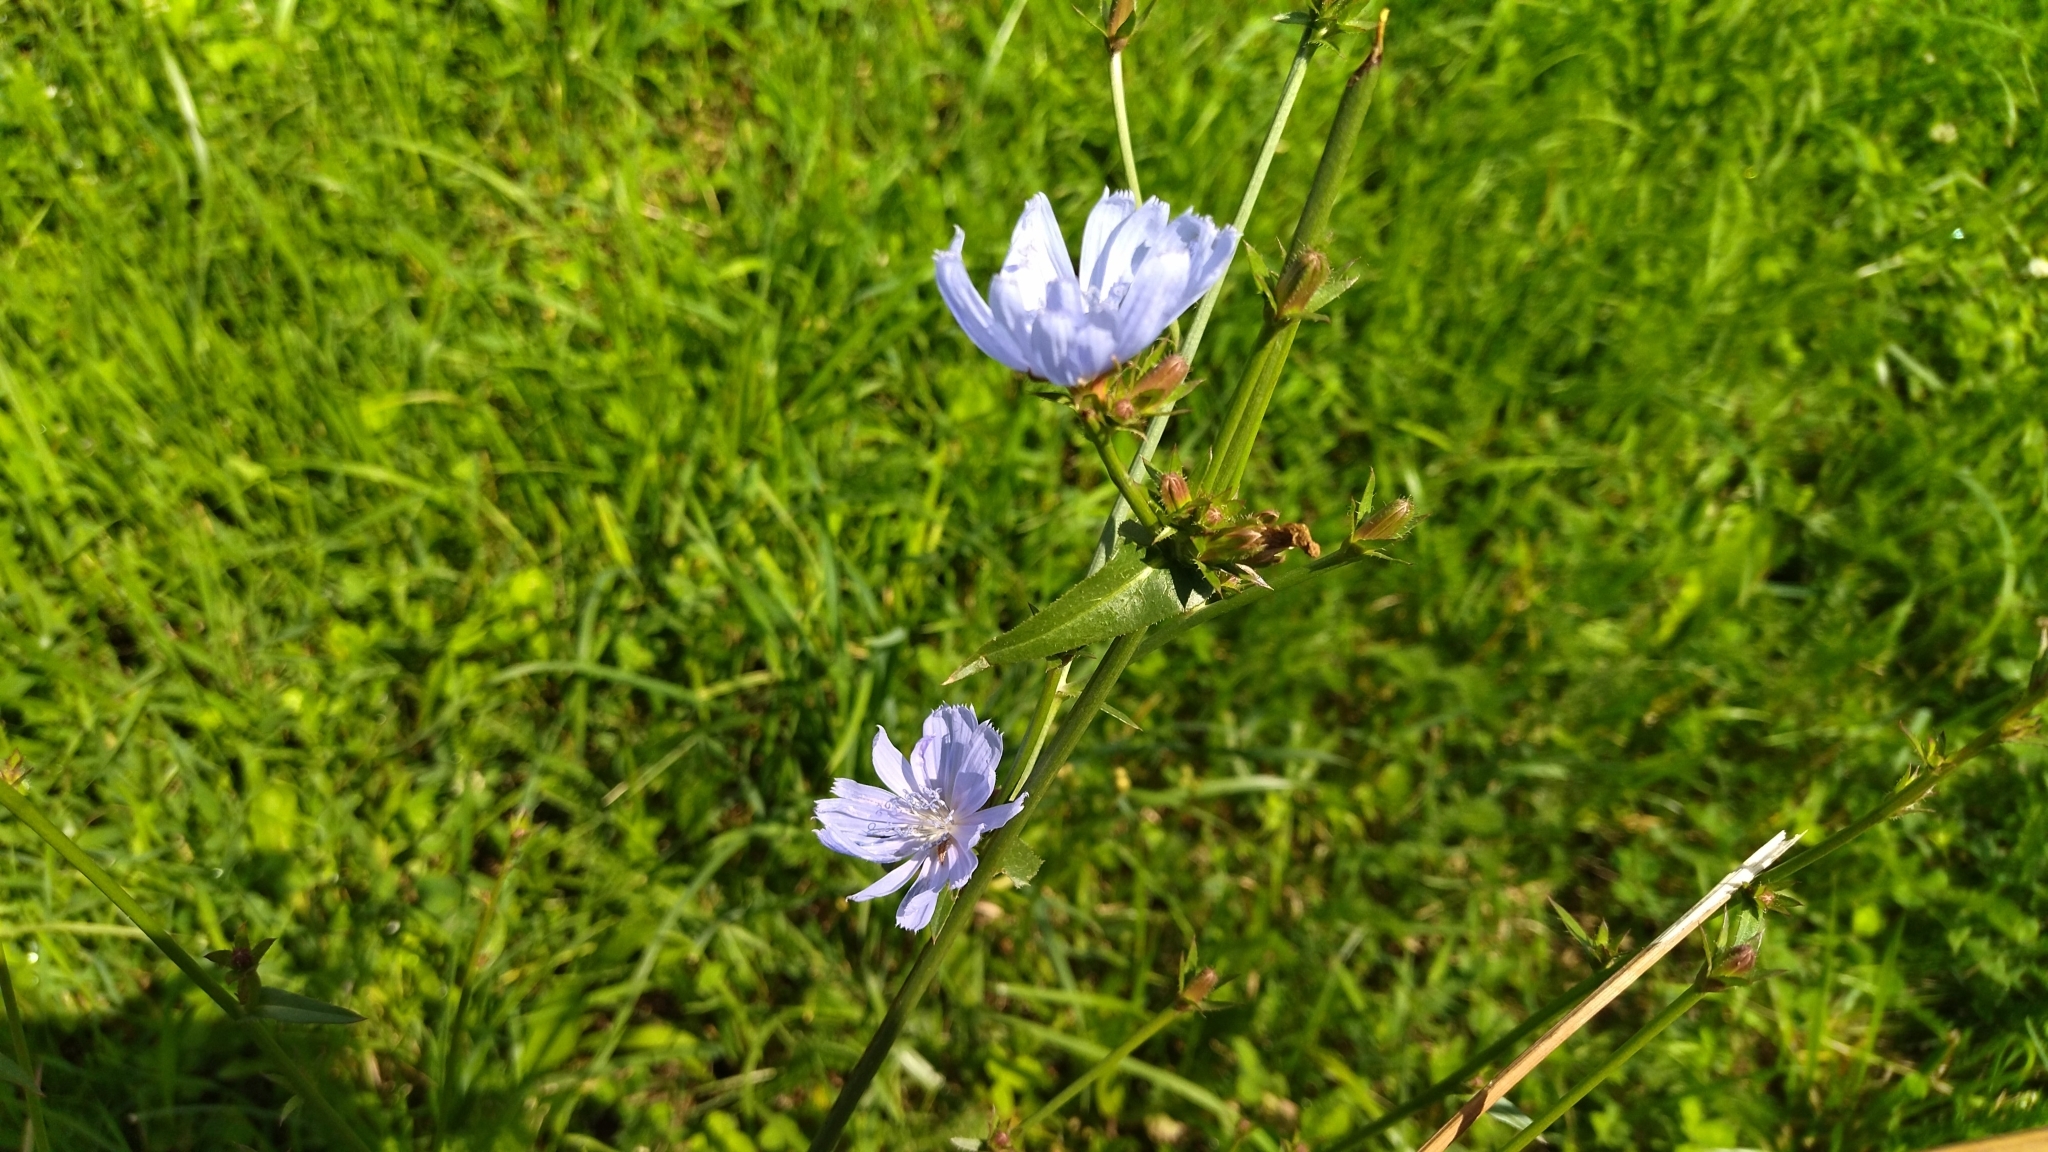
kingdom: Plantae
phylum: Tracheophyta
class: Magnoliopsida
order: Asterales
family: Asteraceae
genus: Cichorium
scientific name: Cichorium intybus
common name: Chicory
